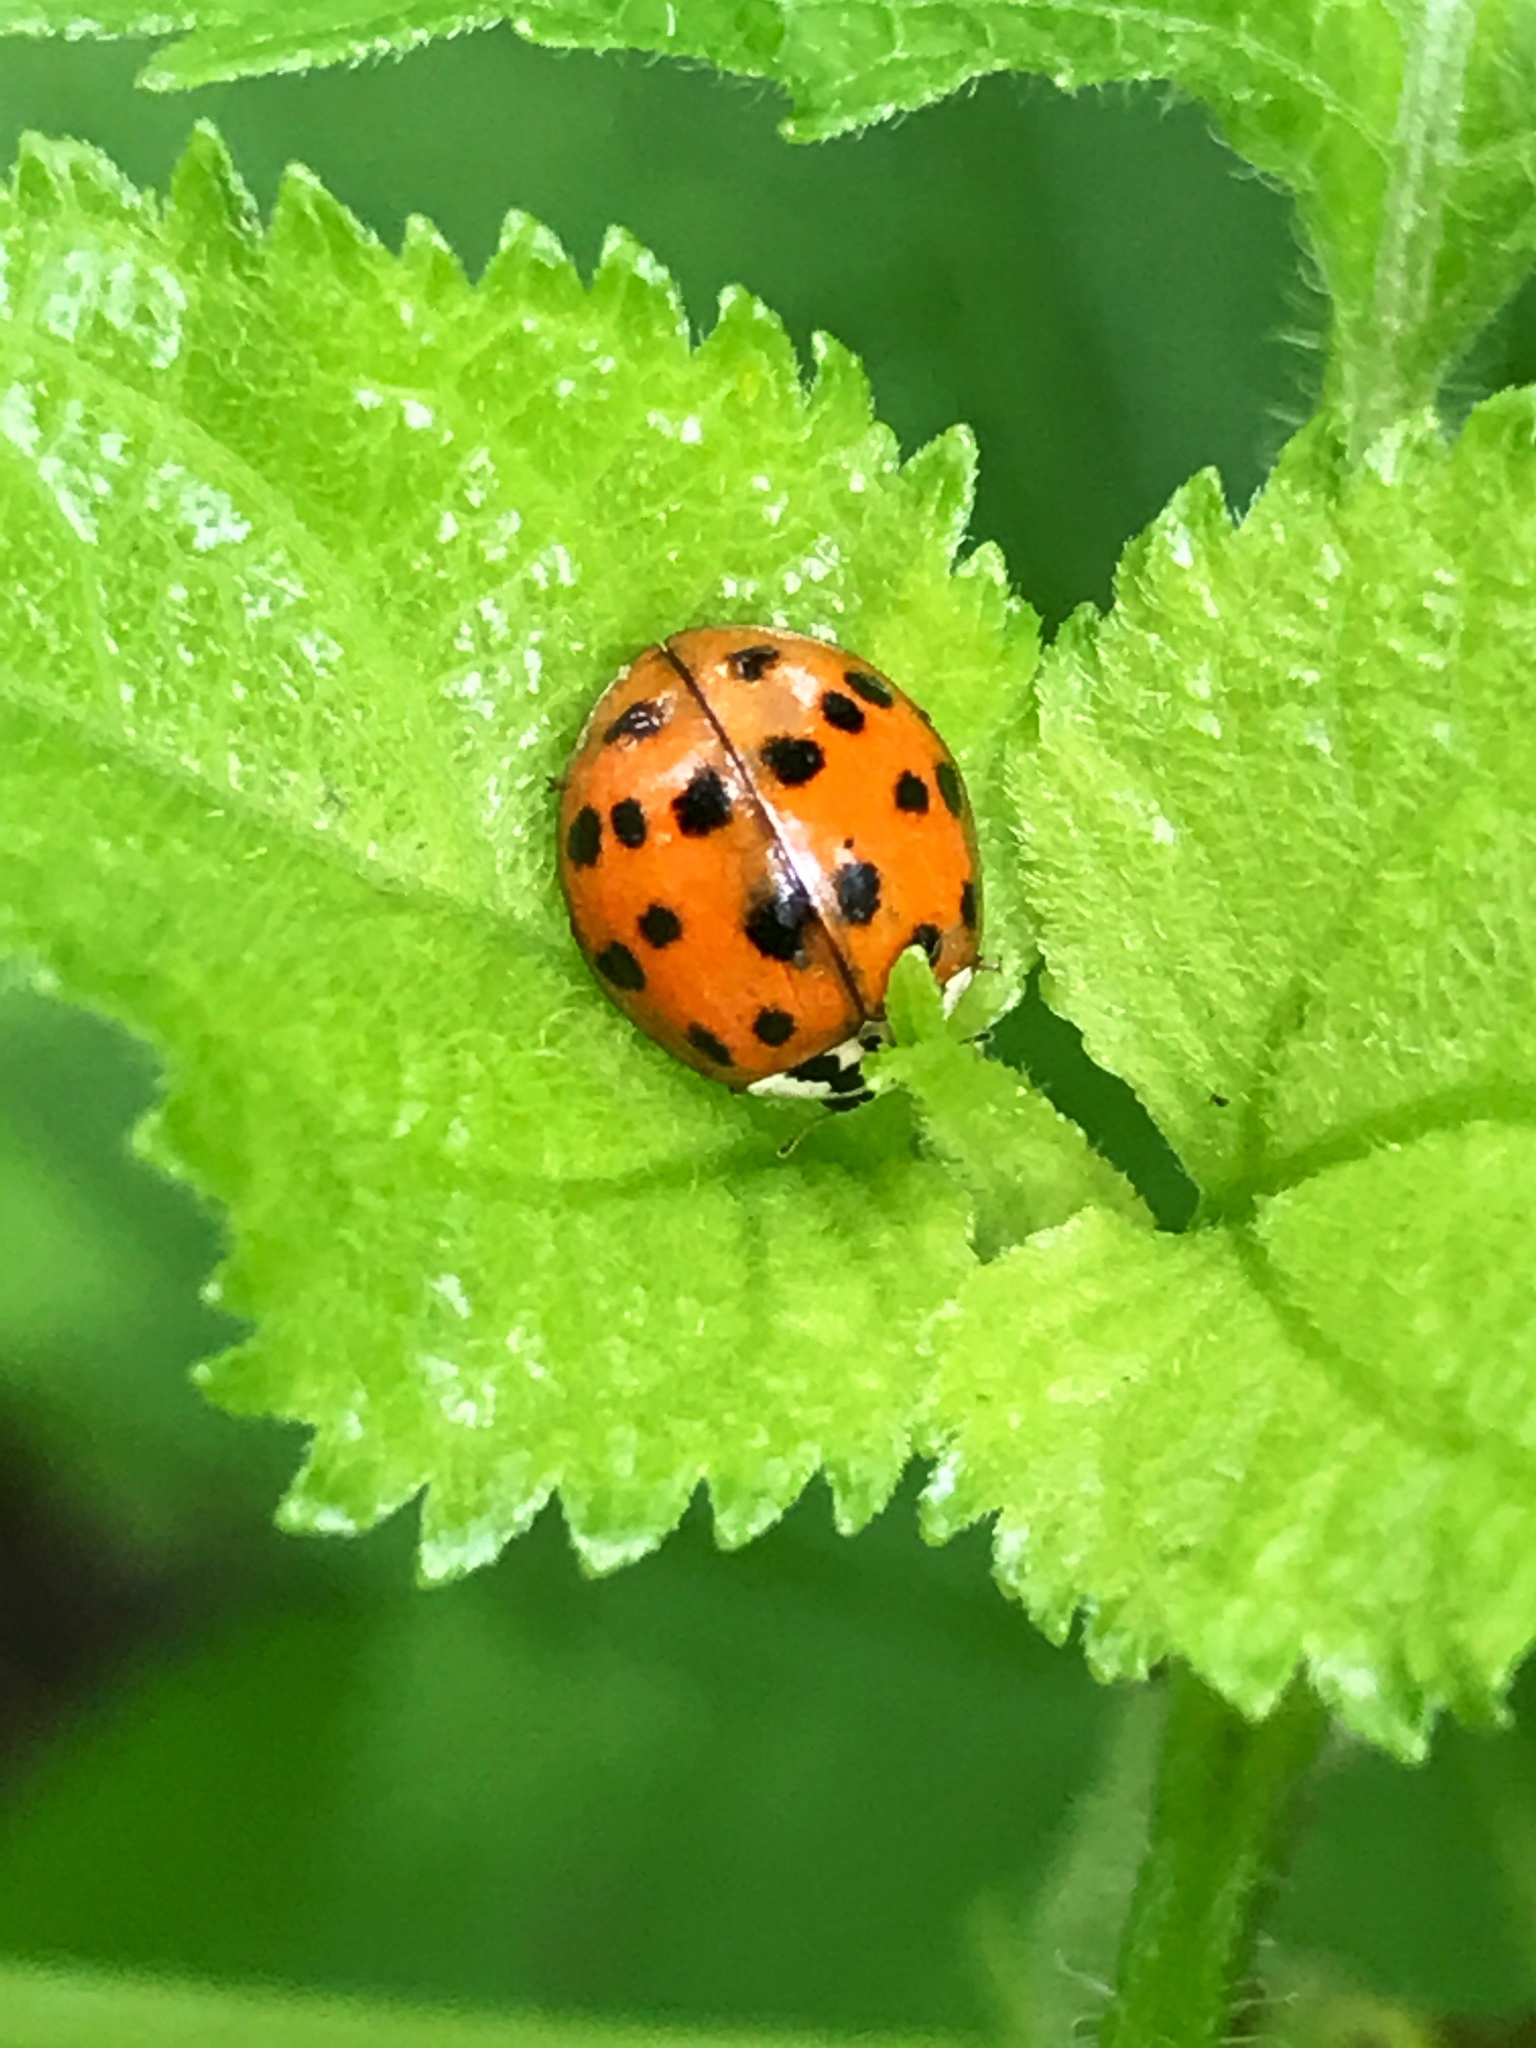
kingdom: Animalia
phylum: Arthropoda
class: Insecta
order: Coleoptera
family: Coccinellidae
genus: Harmonia
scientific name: Harmonia axyridis
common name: Harlequin ladybird
